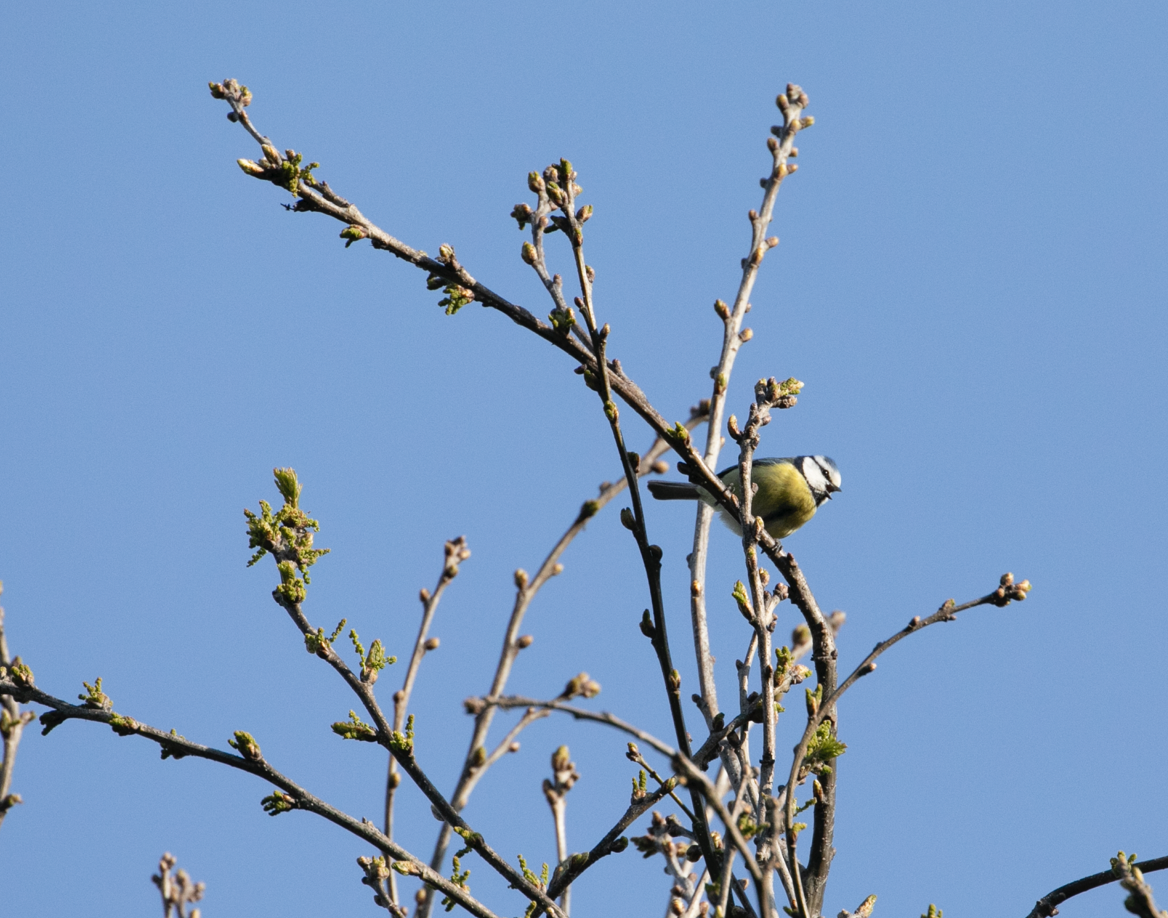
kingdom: Animalia
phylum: Chordata
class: Aves
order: Passeriformes
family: Paridae
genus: Cyanistes
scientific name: Cyanistes caeruleus
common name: Eurasian blue tit
